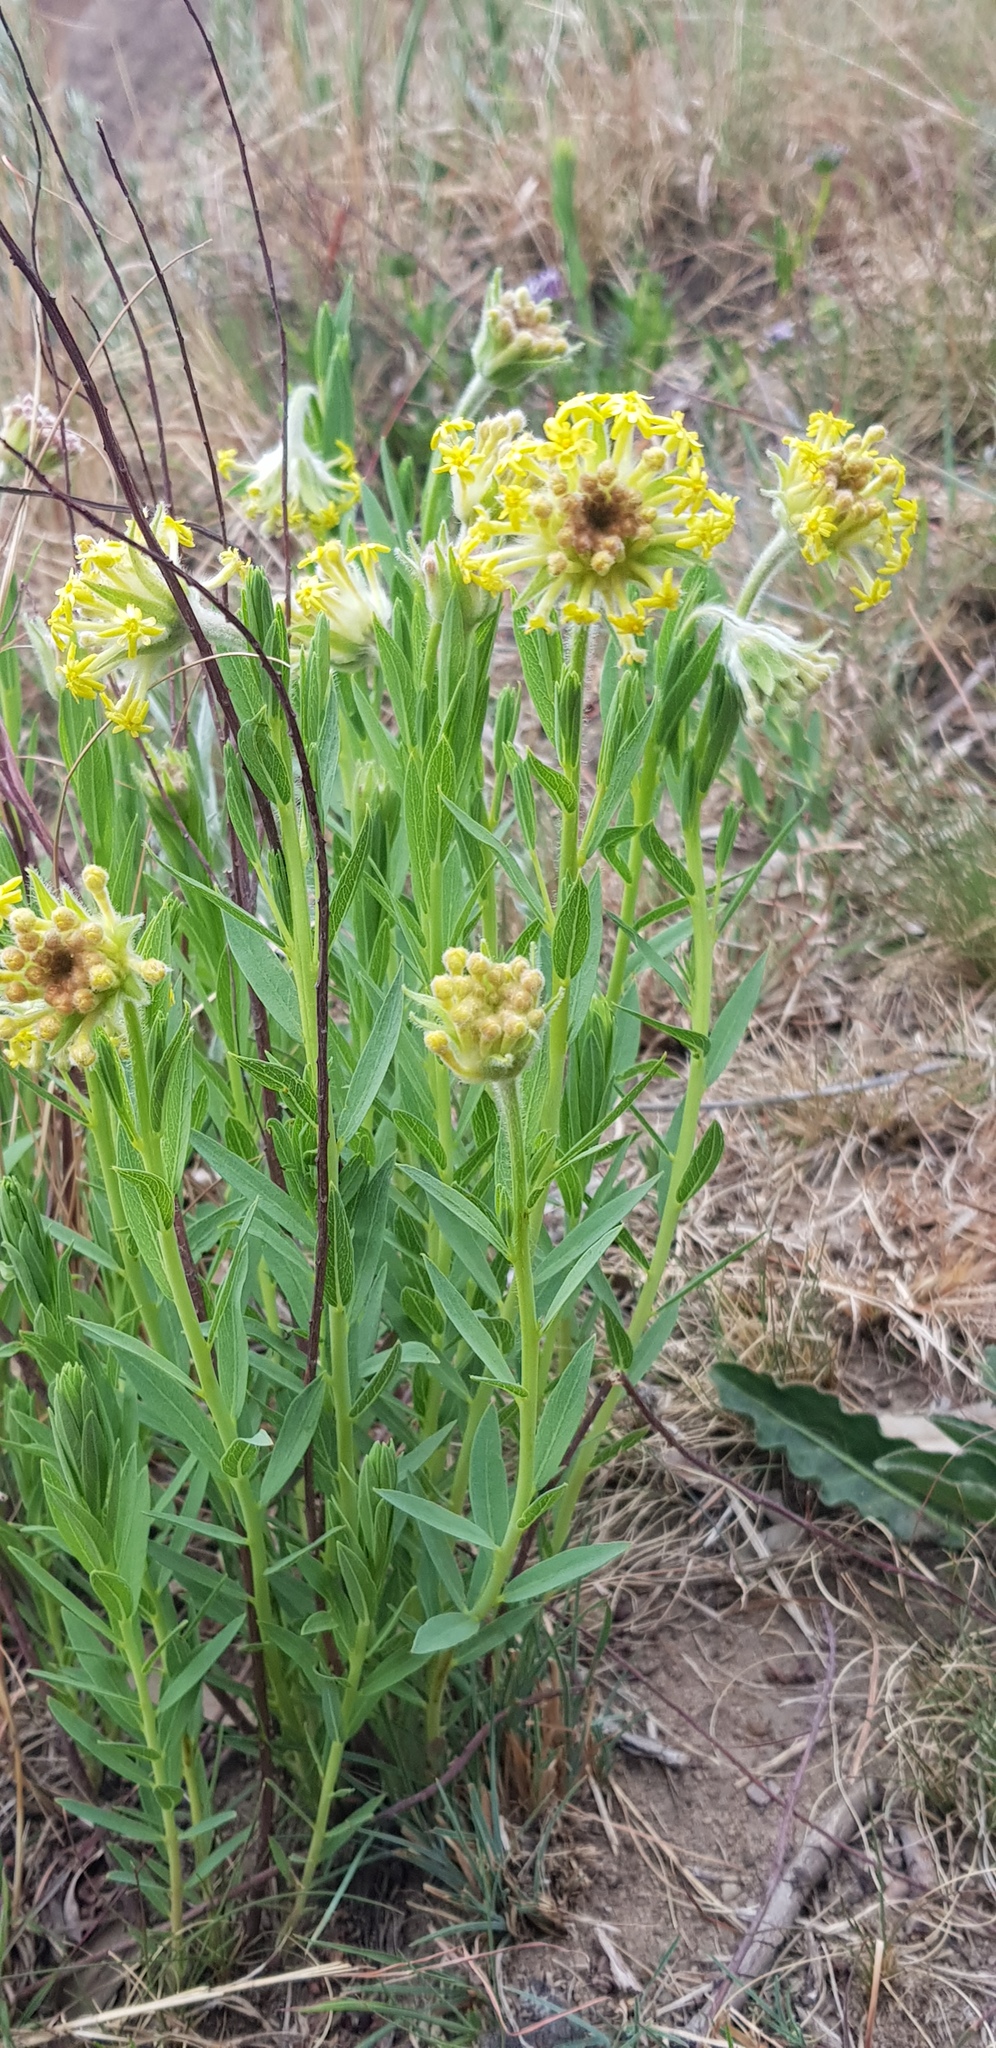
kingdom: Plantae
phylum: Tracheophyta
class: Magnoliopsida
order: Malvales
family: Thymelaeaceae
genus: Gnidia
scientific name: Gnidia kraussiana
